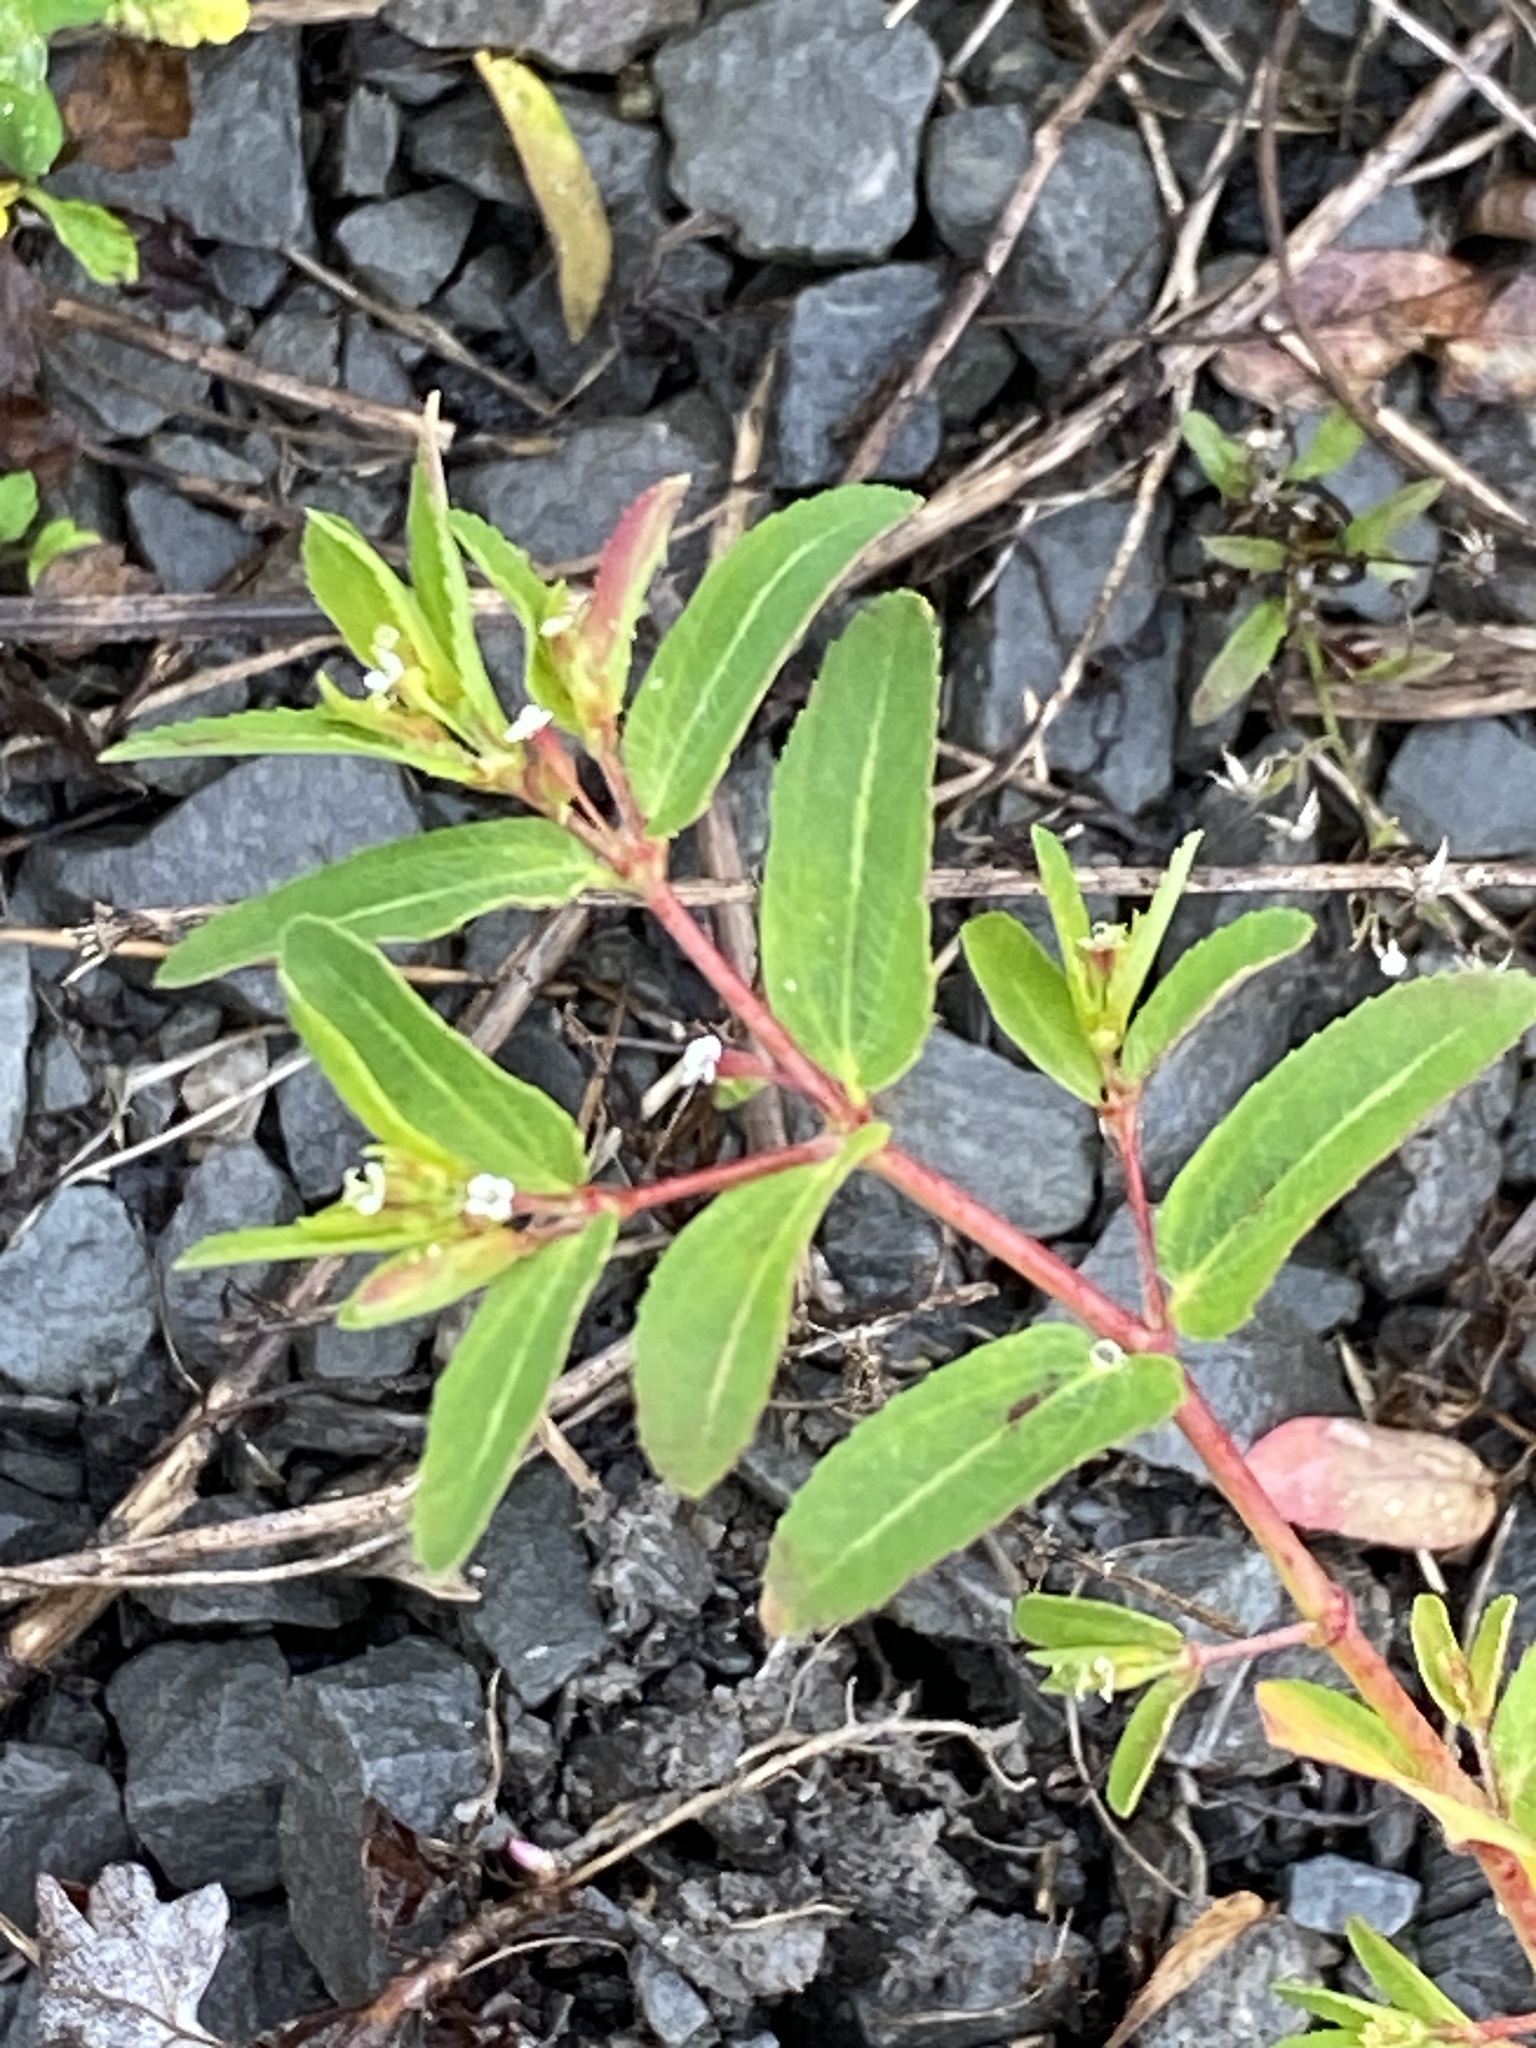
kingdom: Plantae
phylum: Tracheophyta
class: Magnoliopsida
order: Malpighiales
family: Euphorbiaceae
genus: Euphorbia
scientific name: Euphorbia nutans
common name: Eyebane
